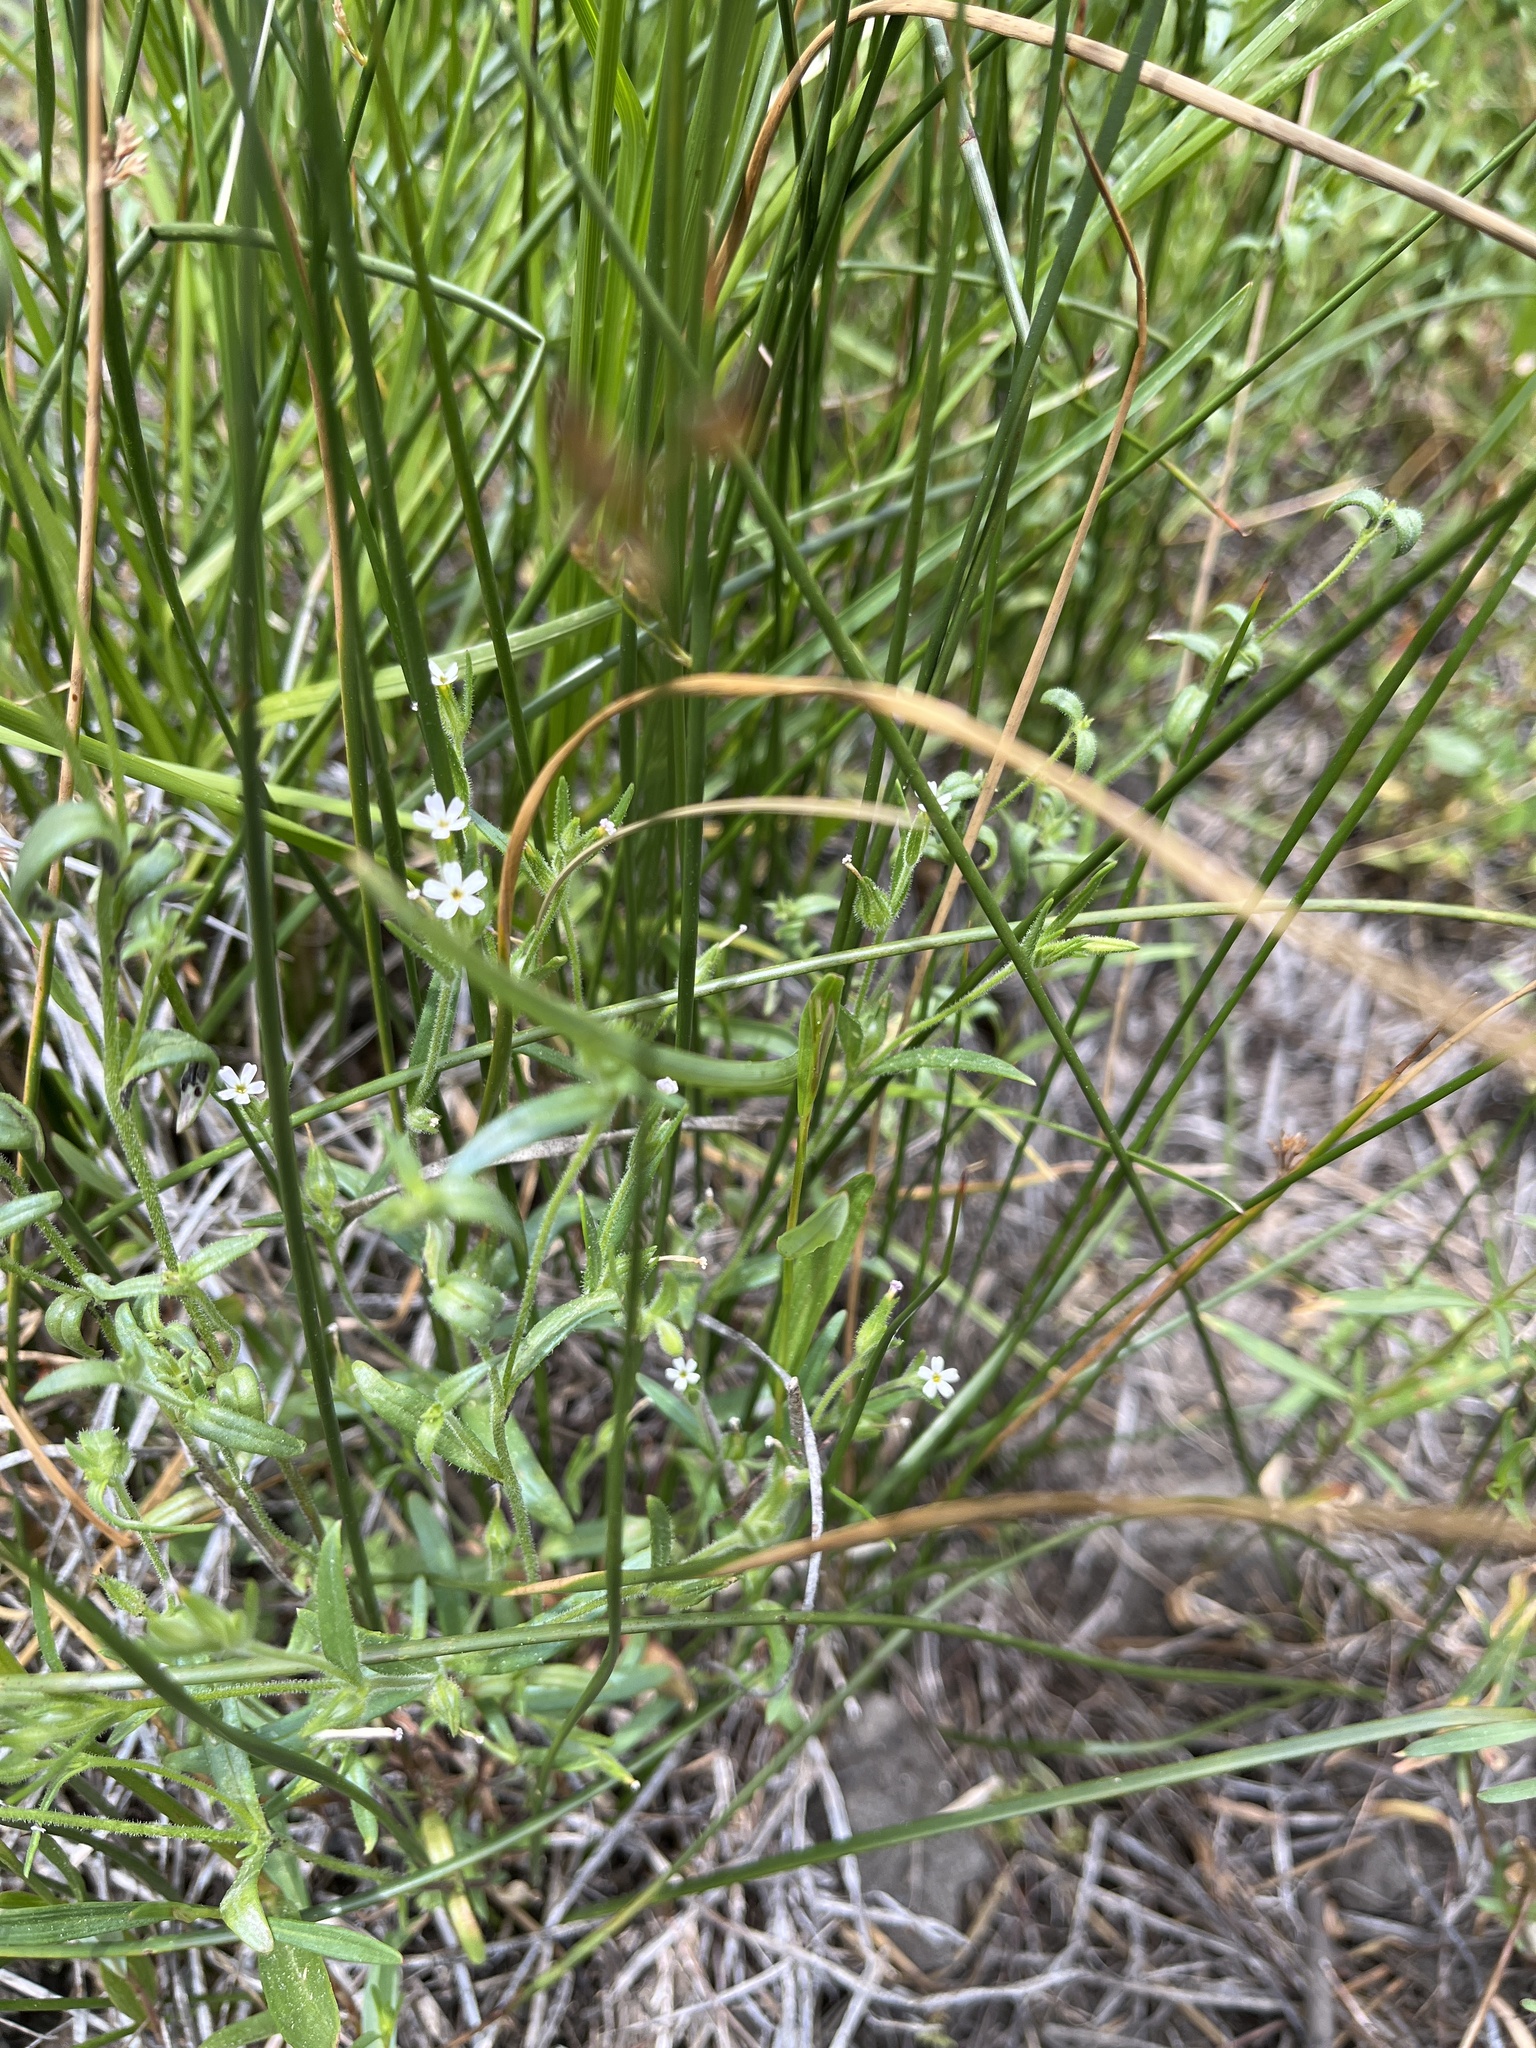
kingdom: Plantae
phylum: Tracheophyta
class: Magnoliopsida
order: Ericales
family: Polemoniaceae
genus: Phlox
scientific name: Phlox gracilis
